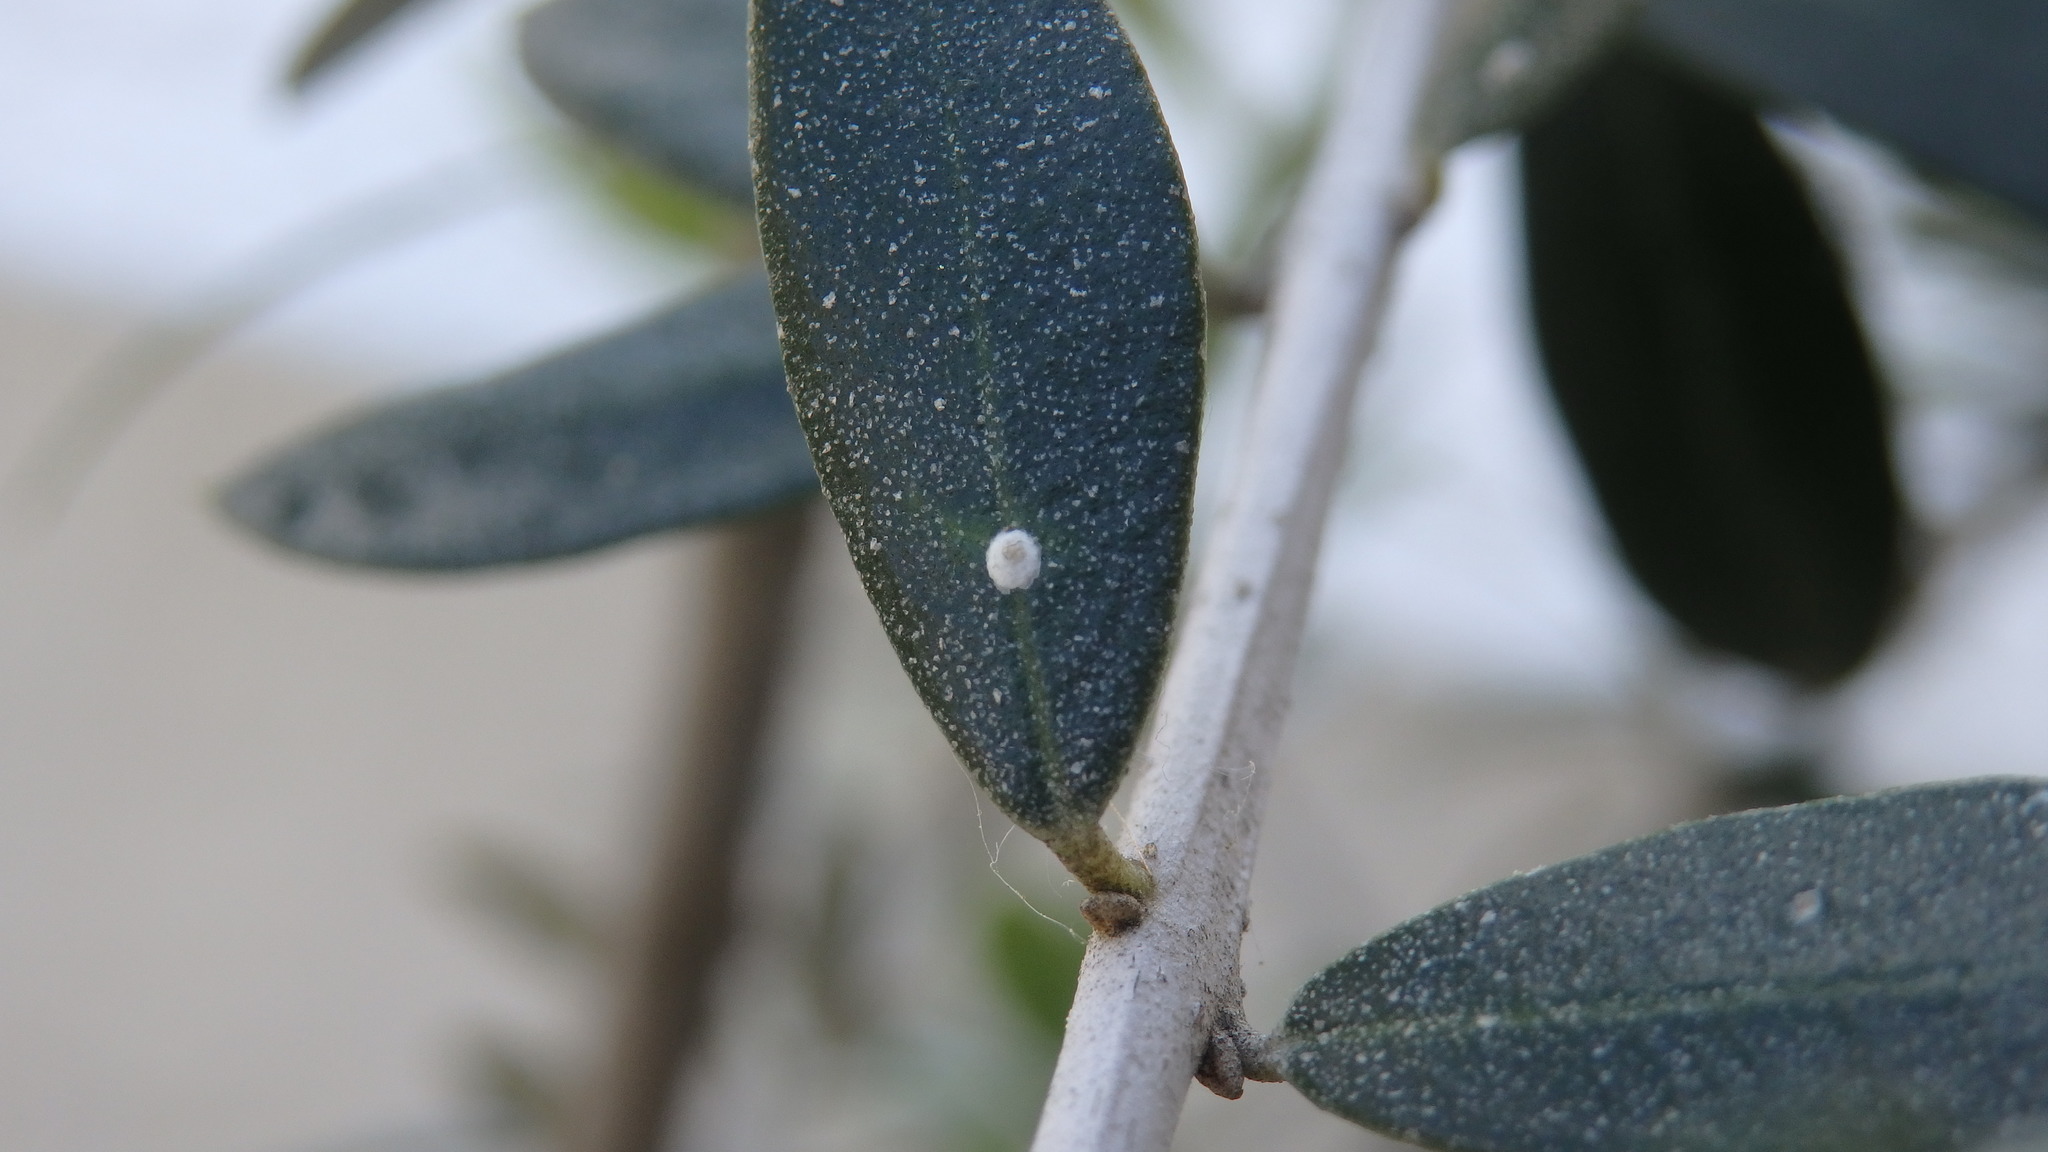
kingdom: Animalia
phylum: Arthropoda
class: Insecta
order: Hemiptera
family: Diaspididae
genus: Aonidiella
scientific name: Aonidiella aurantii
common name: California red scale
